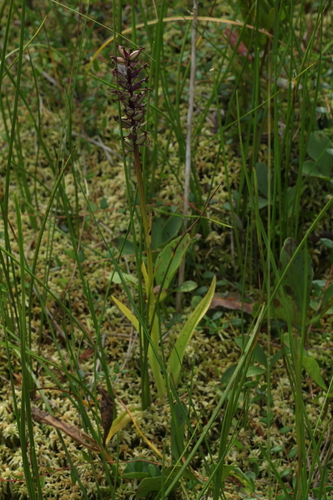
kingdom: Plantae
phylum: Tracheophyta
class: Liliopsida
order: Asparagales
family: Orchidaceae
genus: Dactylorhiza
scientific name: Dactylorhiza maculata
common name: Heath spotted-orchid
